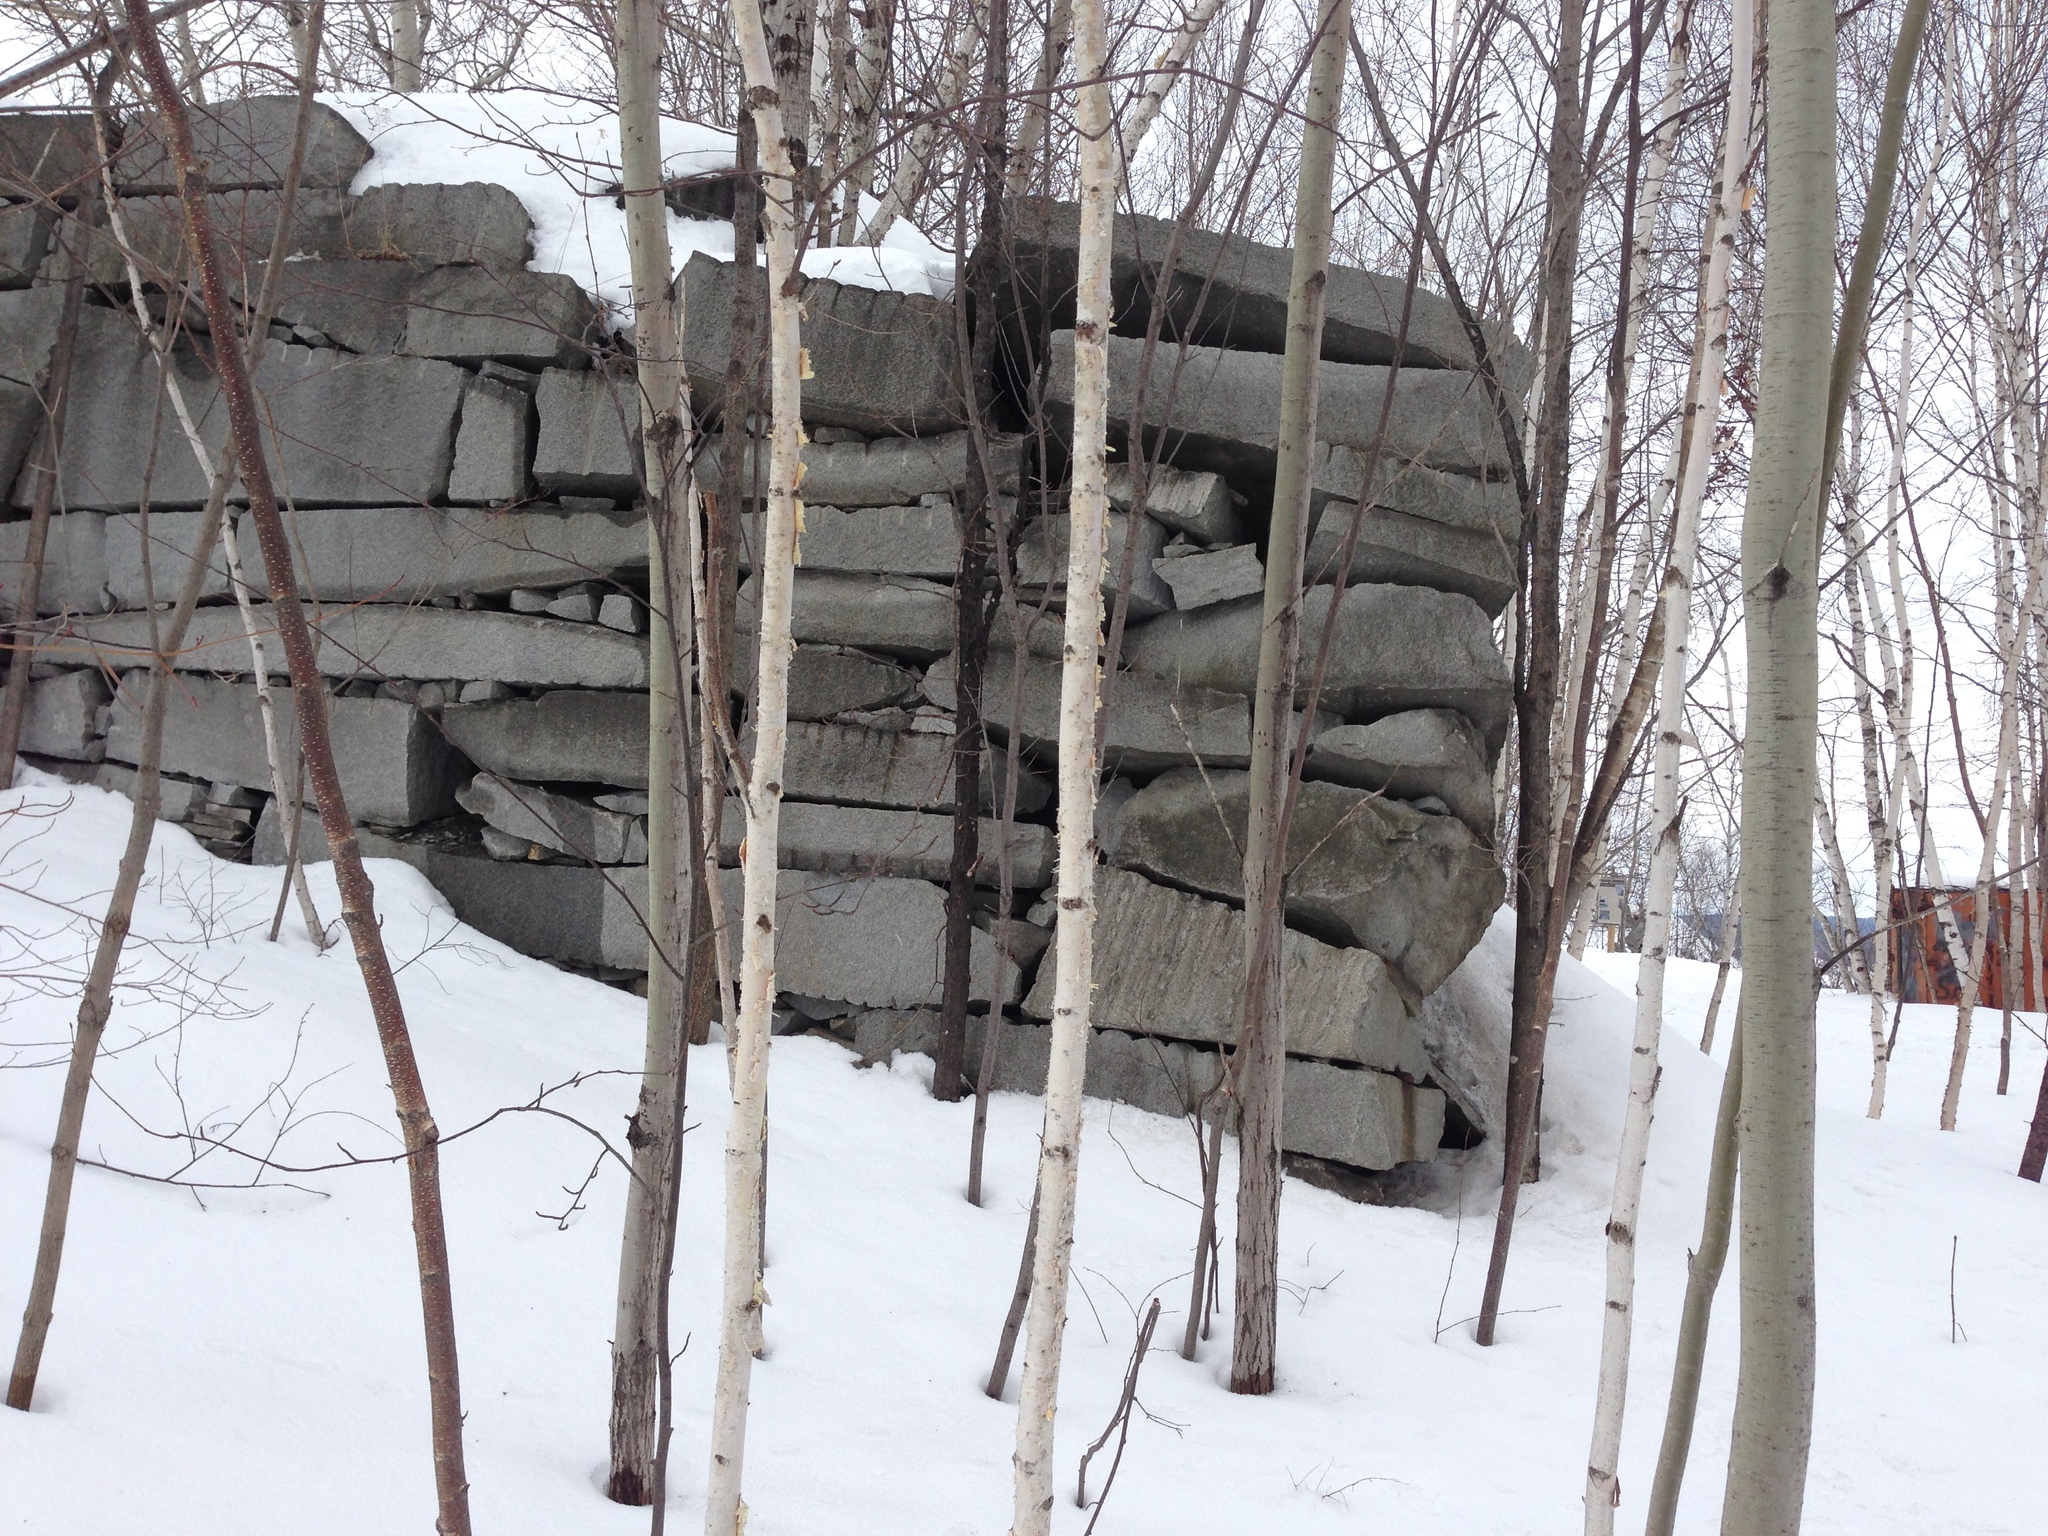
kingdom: Plantae
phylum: Tracheophyta
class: Magnoliopsida
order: Fagales
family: Betulaceae
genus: Betula
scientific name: Betula papyrifera
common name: Paper birch
